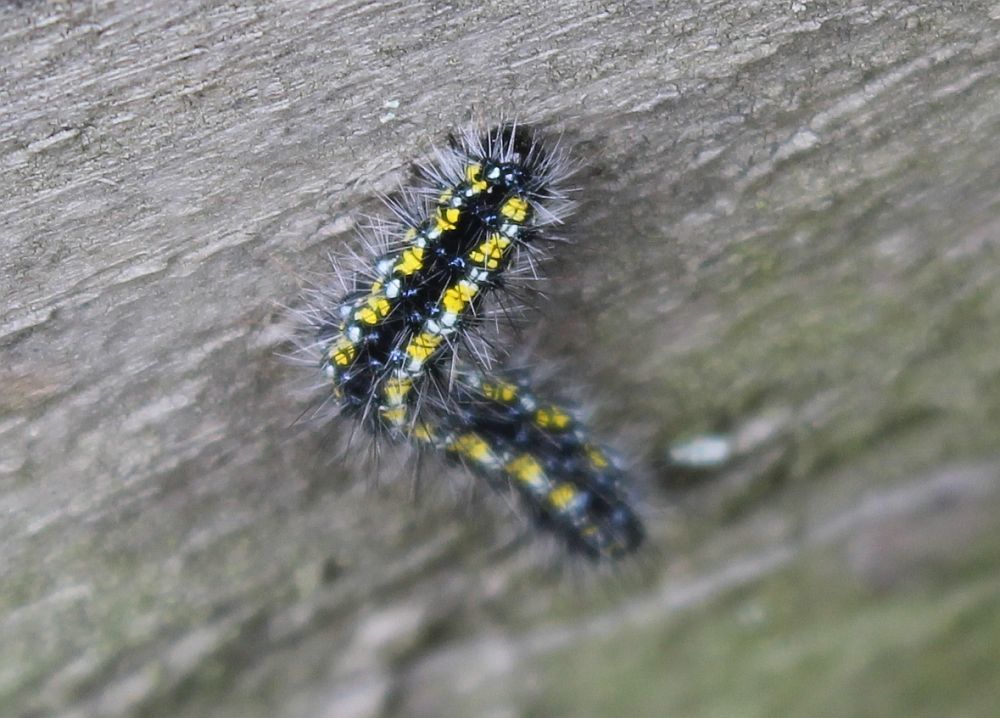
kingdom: Animalia
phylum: Arthropoda
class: Insecta
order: Lepidoptera
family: Erebidae
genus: Callimorpha
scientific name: Callimorpha dominula
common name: Scarlet tiger
